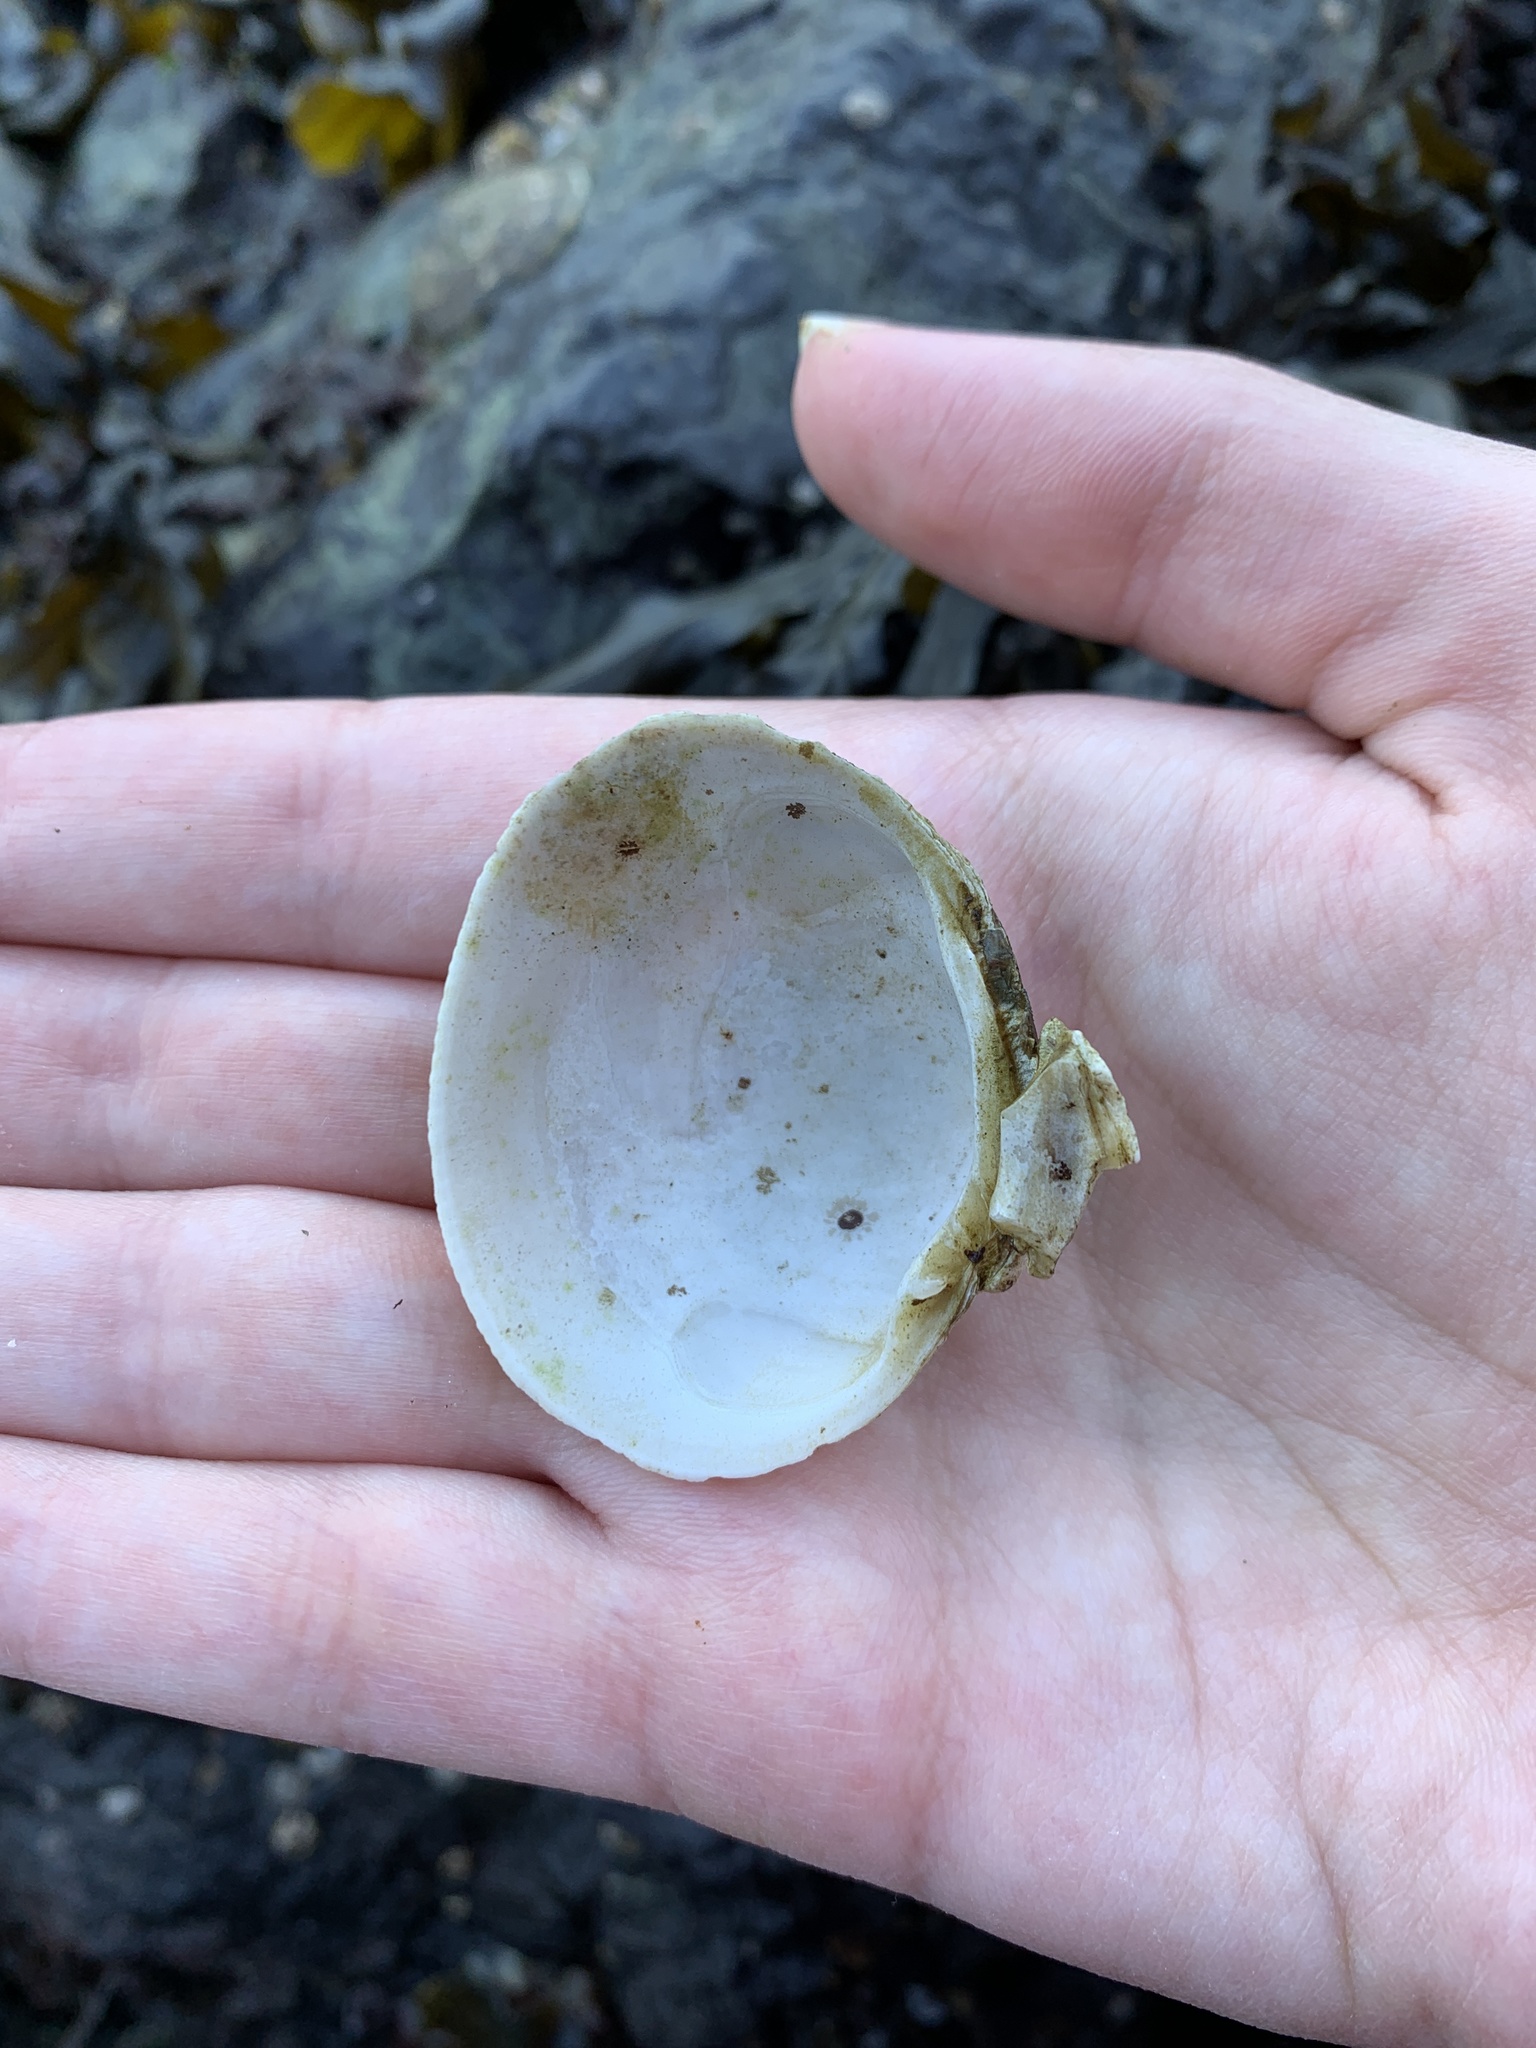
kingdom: Animalia
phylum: Mollusca
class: Bivalvia
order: Venerida
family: Veneridae
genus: Leukoma
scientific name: Leukoma staminea
